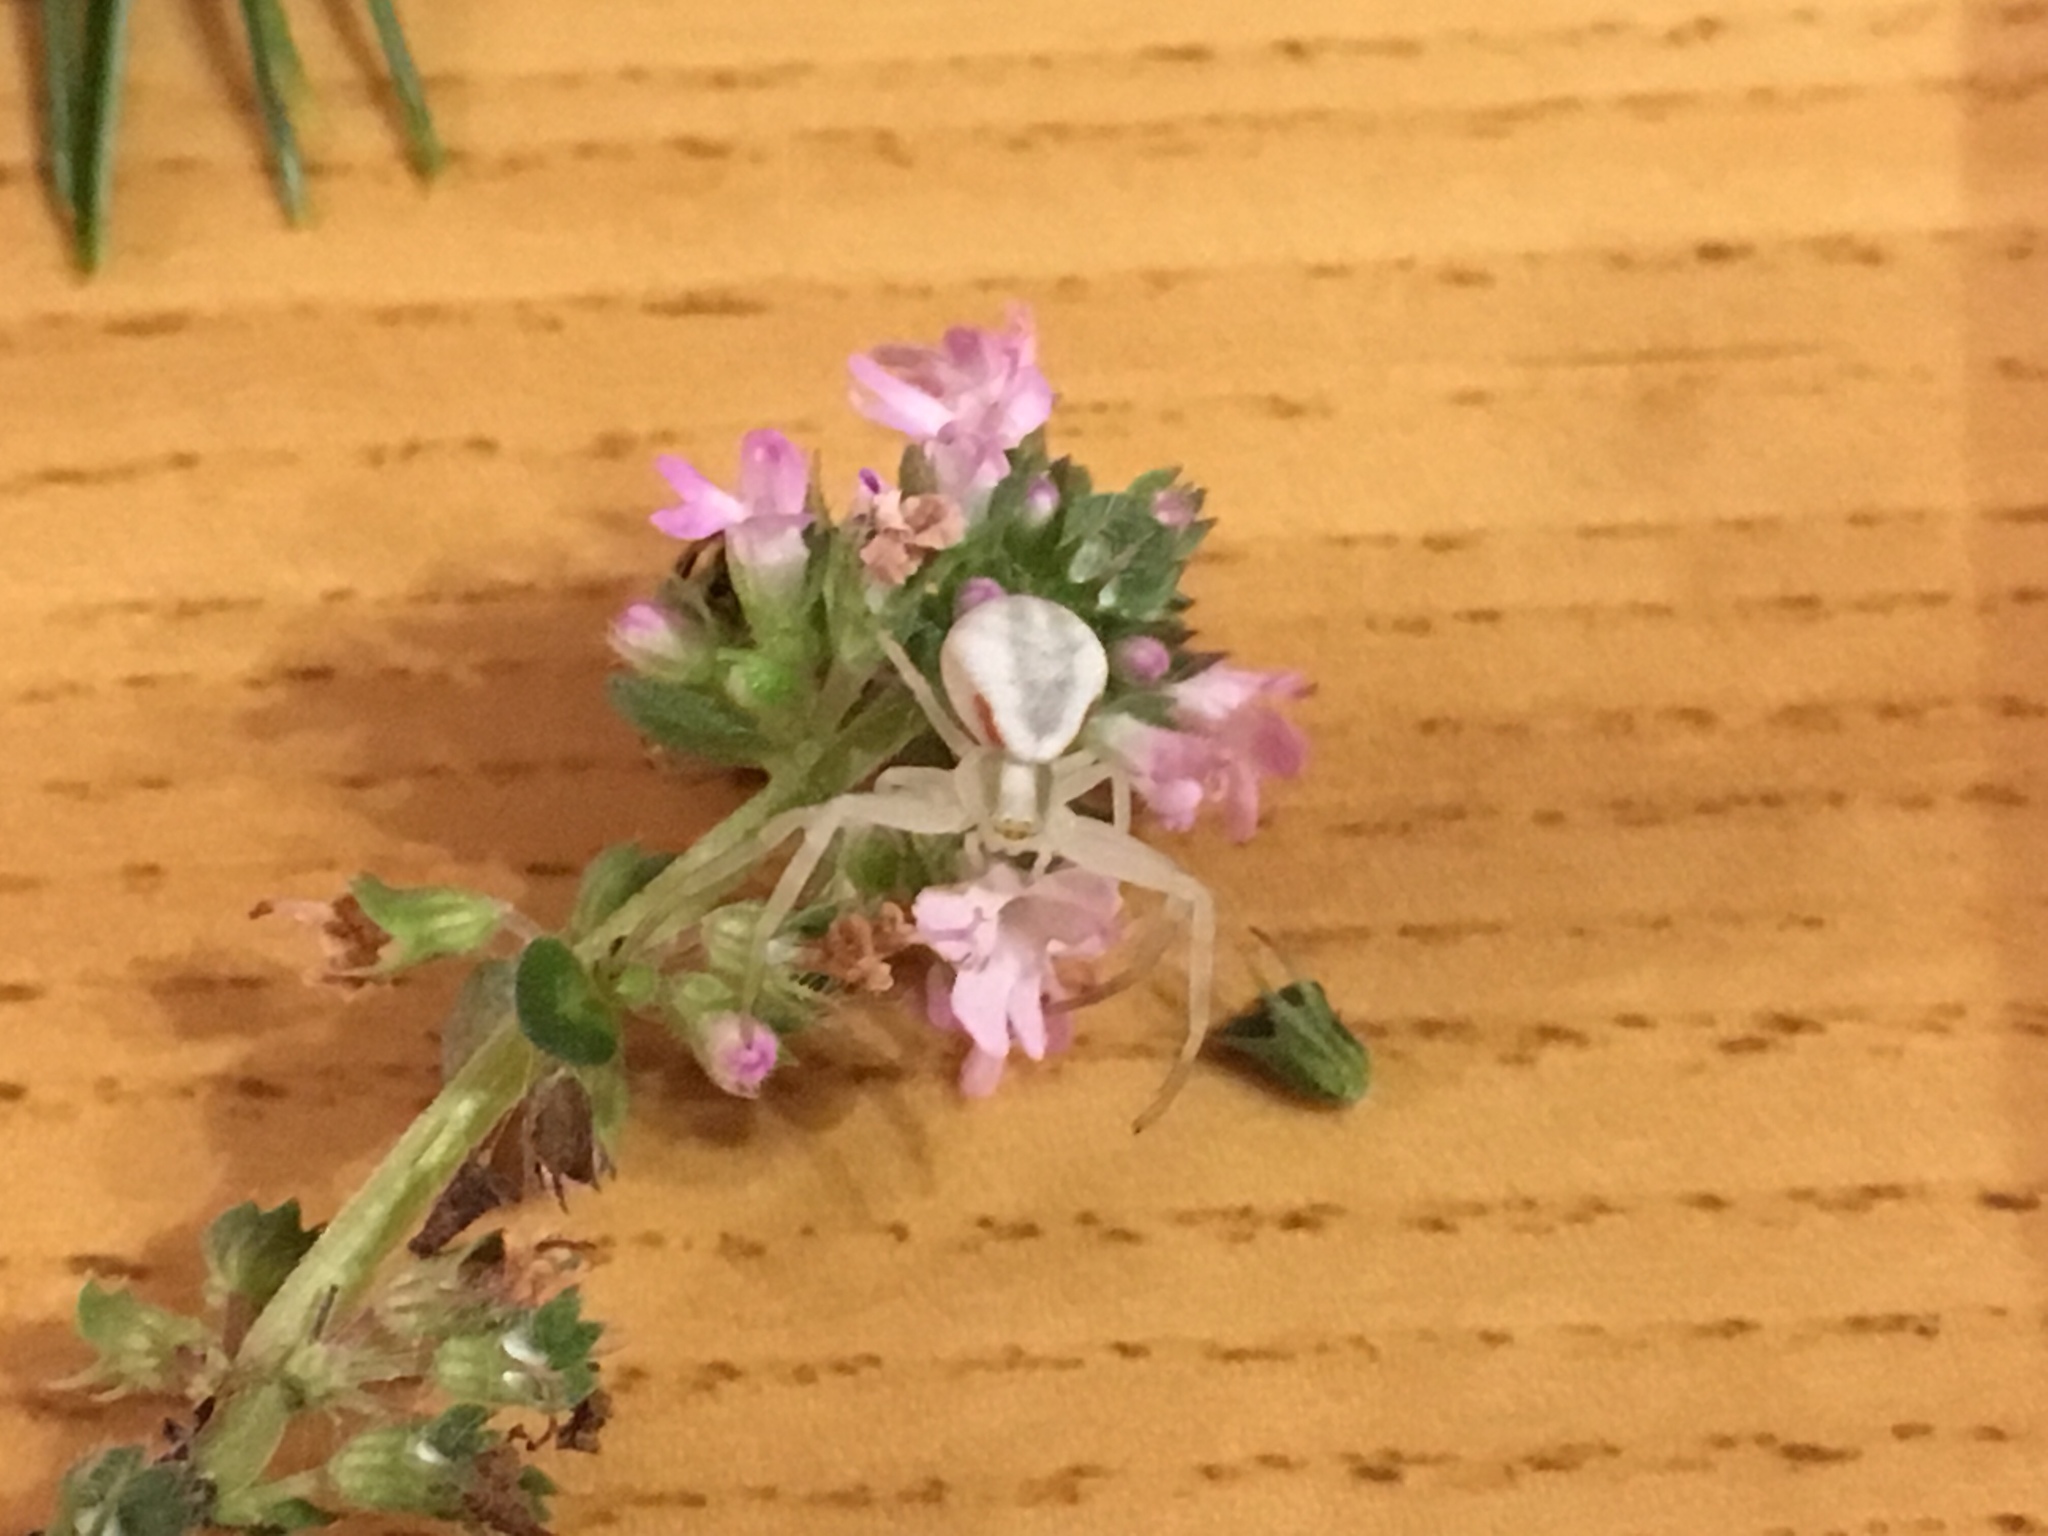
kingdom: Animalia
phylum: Arthropoda
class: Arachnida
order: Araneae
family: Thomisidae
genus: Misumena
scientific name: Misumena vatia
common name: Goldenrod crab spider
